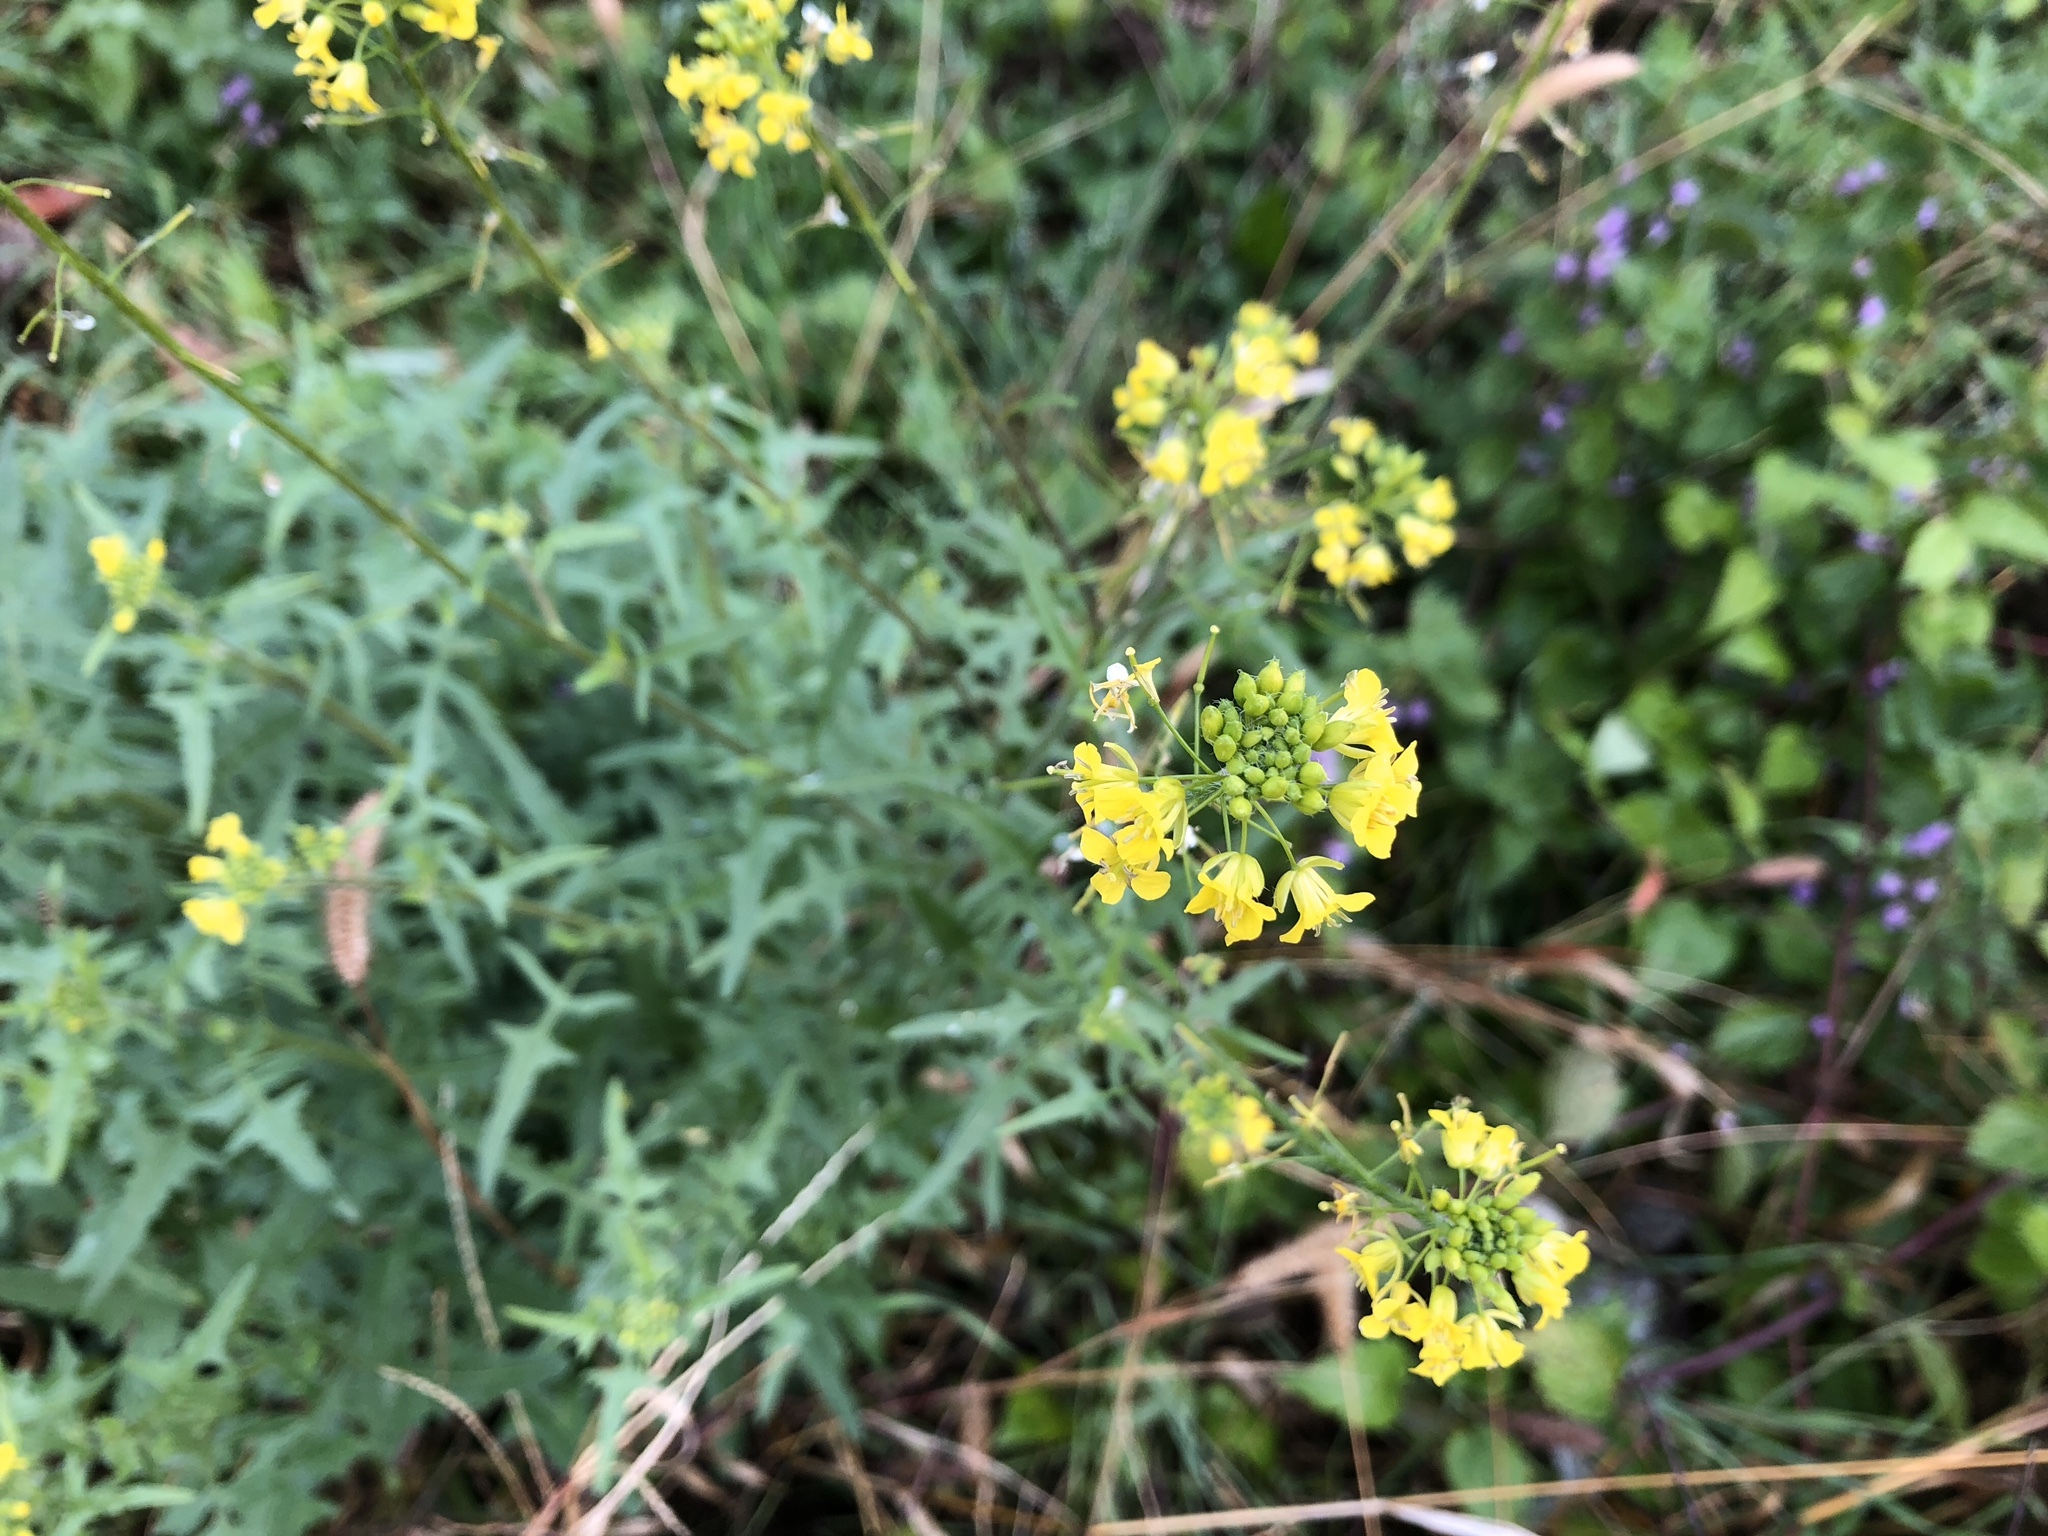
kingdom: Plantae
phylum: Tracheophyta
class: Magnoliopsida
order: Brassicales
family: Brassicaceae
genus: Sisymbrium
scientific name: Sisymbrium loeselii
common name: False london-rocket
